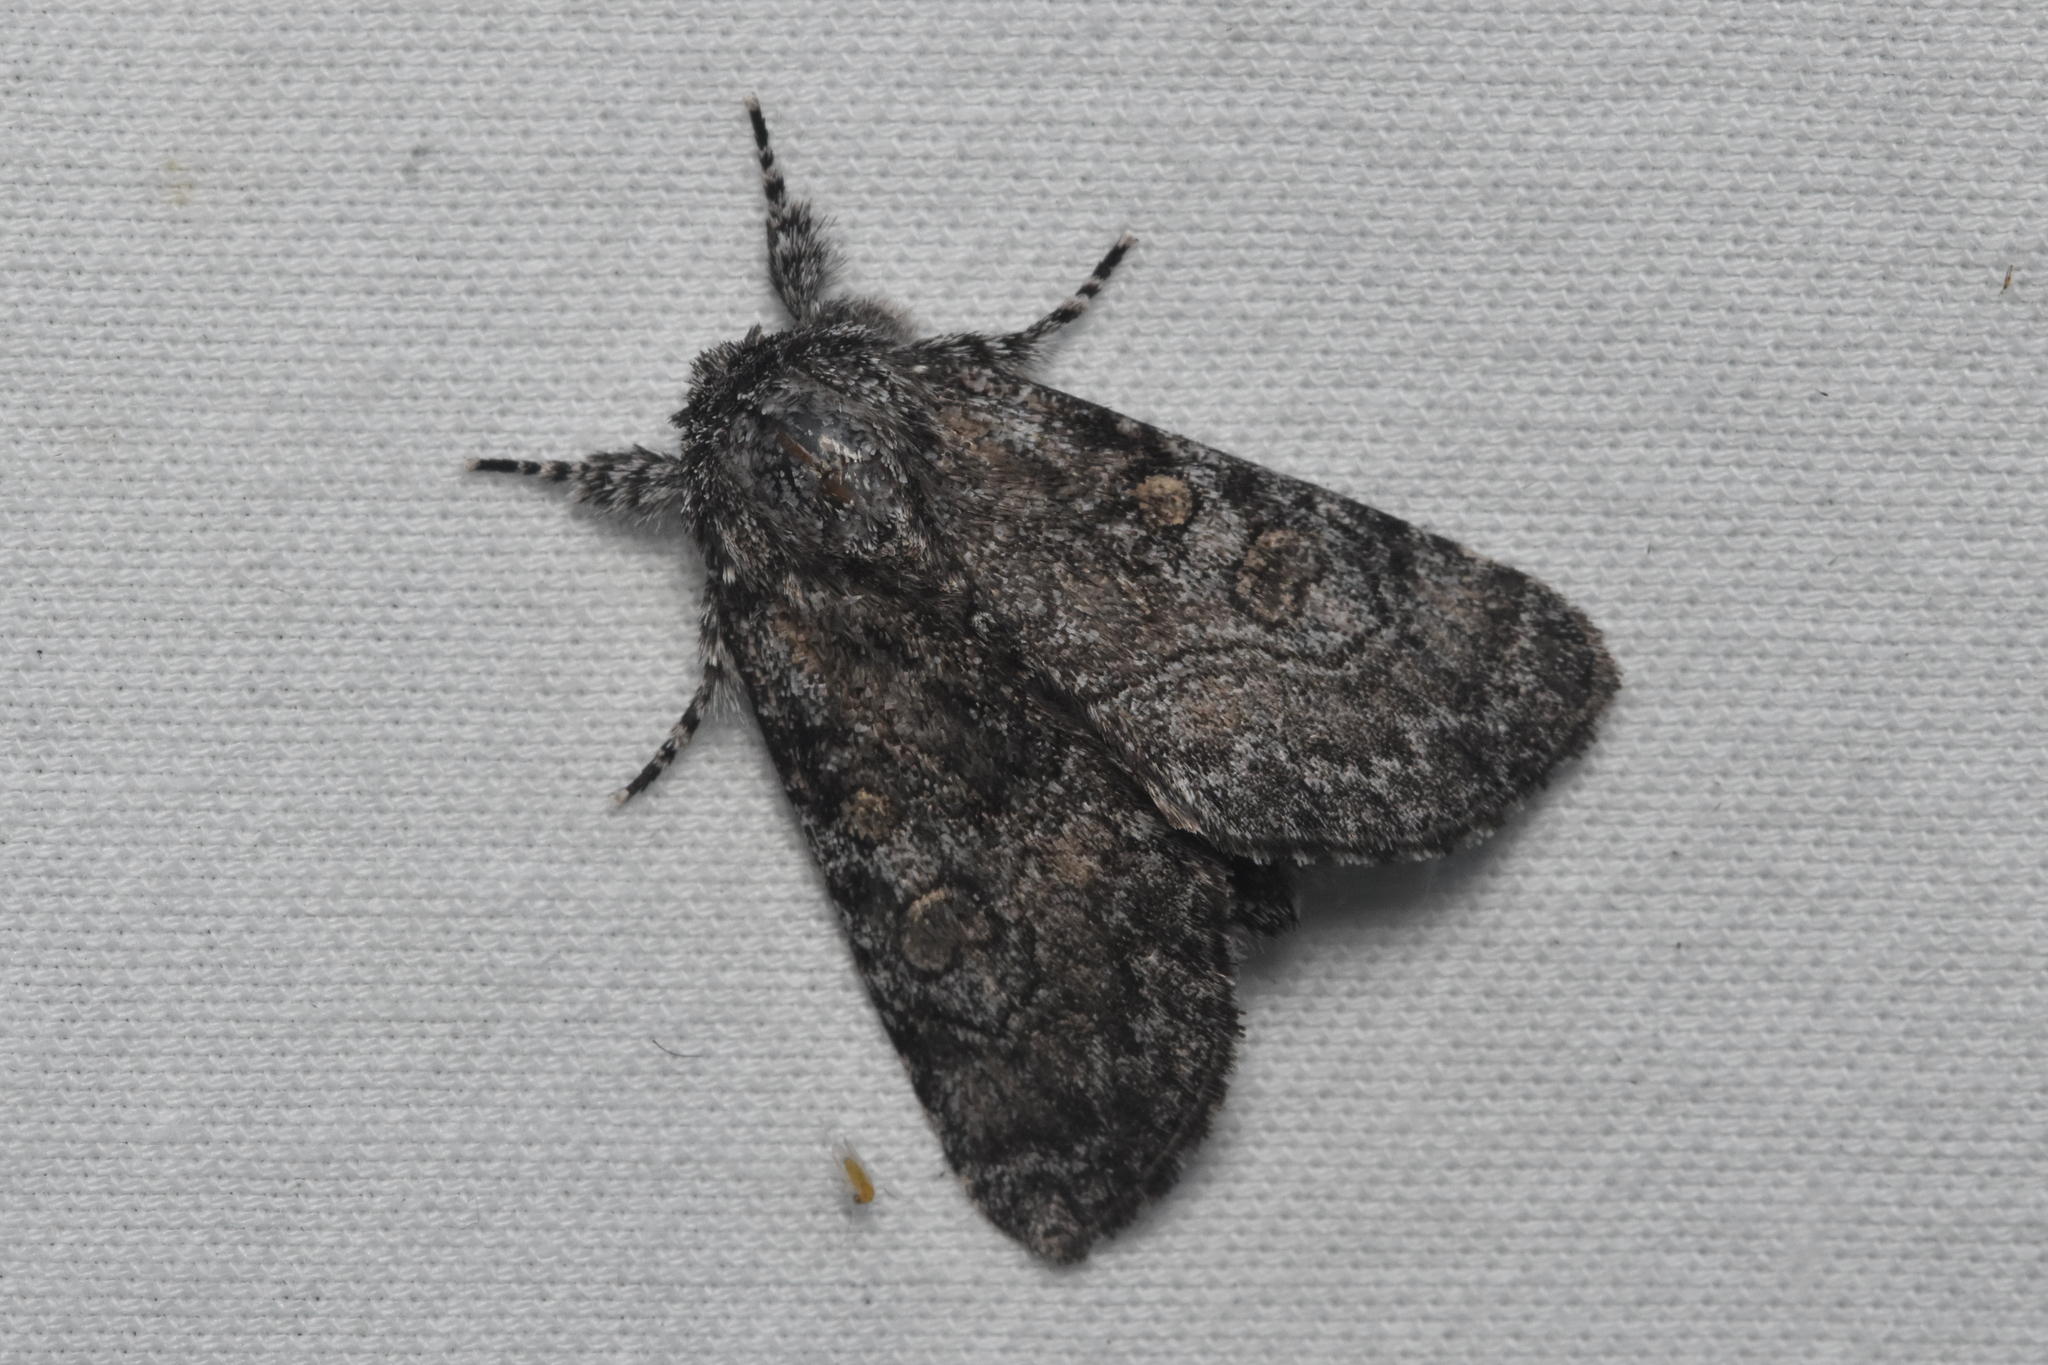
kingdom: Animalia
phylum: Arthropoda
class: Insecta
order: Lepidoptera
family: Noctuidae
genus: Raphia
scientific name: Raphia frater
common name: Brother
